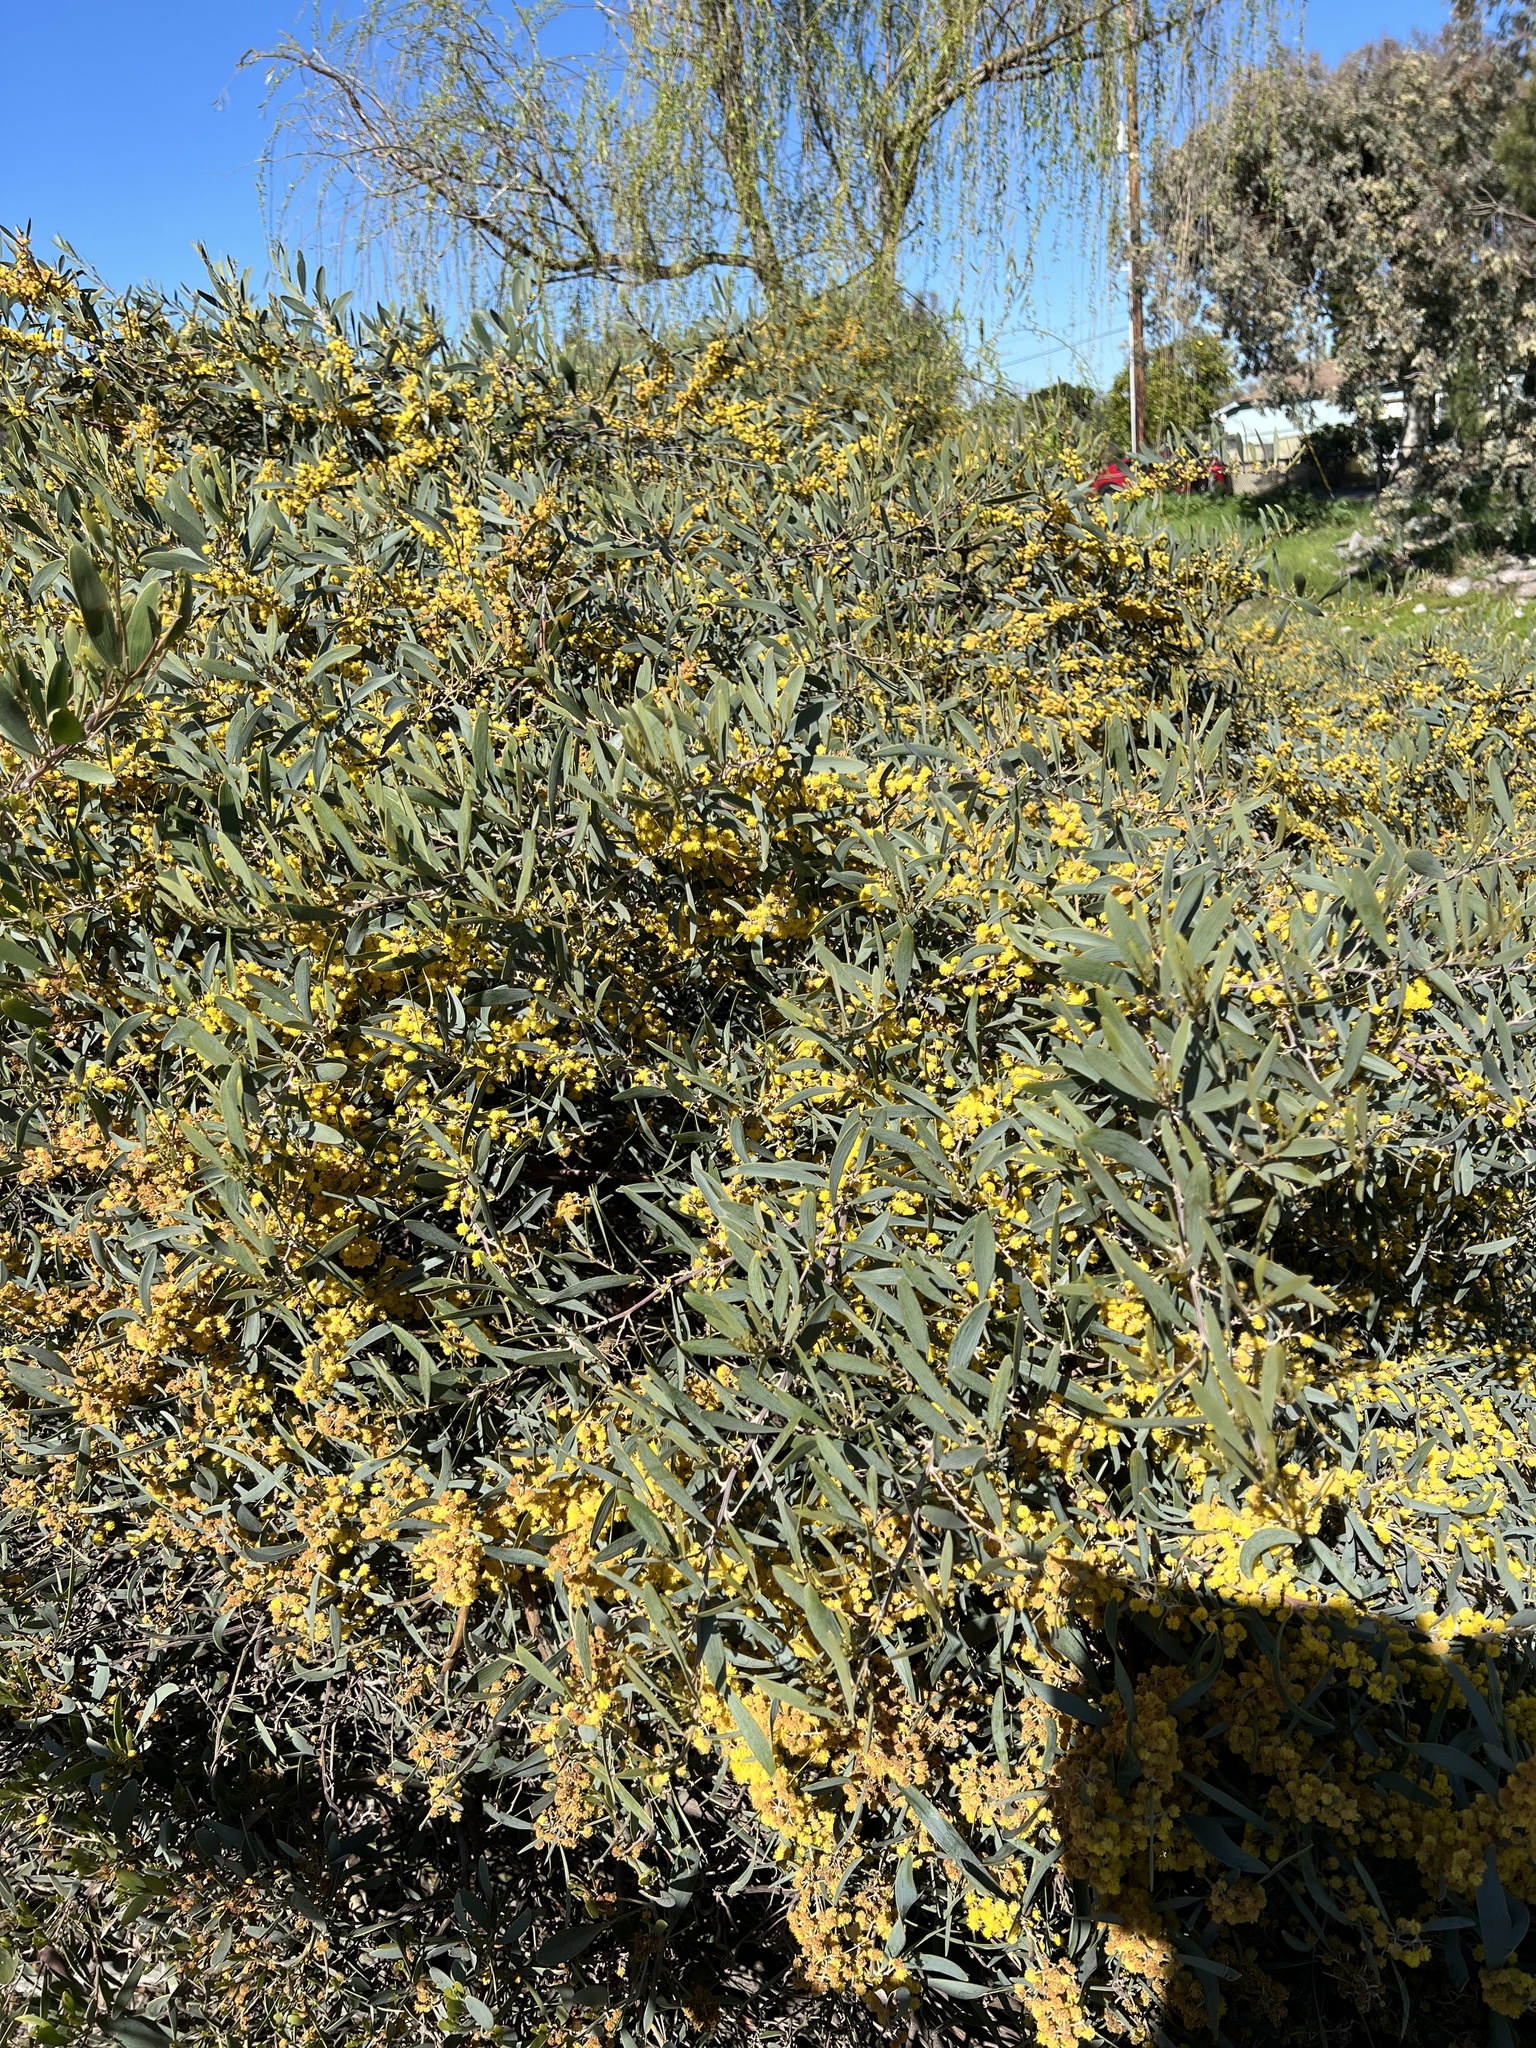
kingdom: Plantae
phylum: Tracheophyta
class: Magnoliopsida
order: Fabales
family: Fabaceae
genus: Acacia
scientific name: Acacia redolens
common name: Bank catclaw
